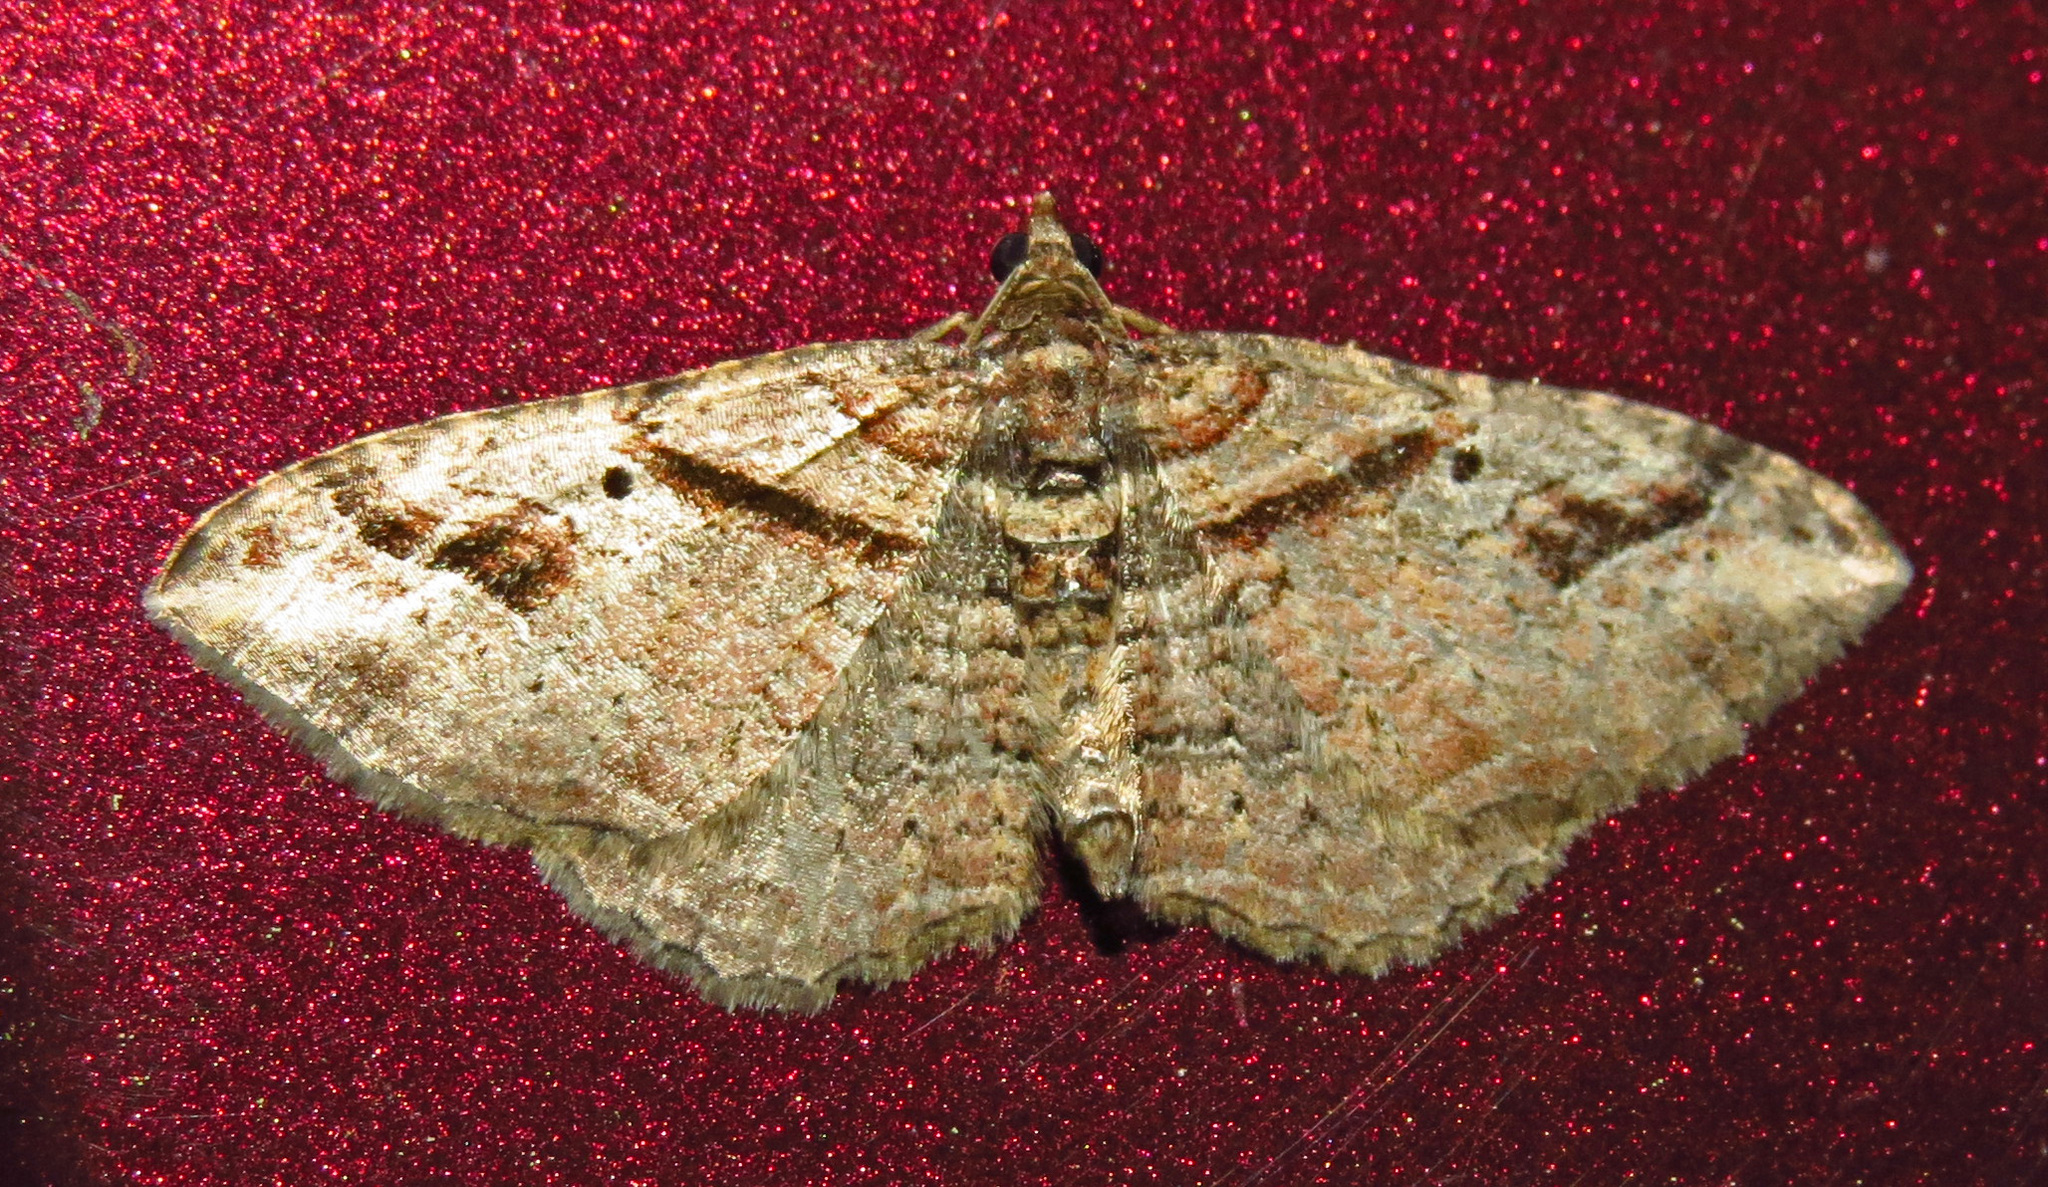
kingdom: Animalia
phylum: Arthropoda
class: Insecta
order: Lepidoptera
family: Geometridae
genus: Costaconvexa
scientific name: Costaconvexa centrostrigaria
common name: Bent-line carpet
